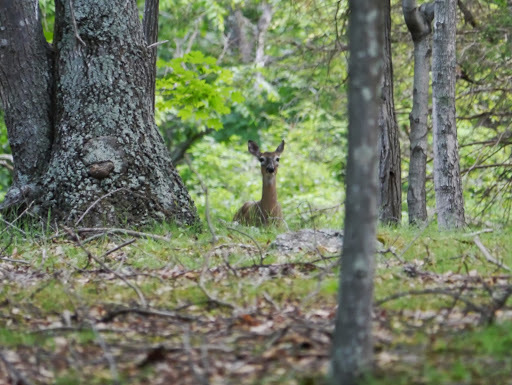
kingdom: Animalia
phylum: Chordata
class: Mammalia
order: Artiodactyla
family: Cervidae
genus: Odocoileus
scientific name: Odocoileus virginianus
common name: White-tailed deer
